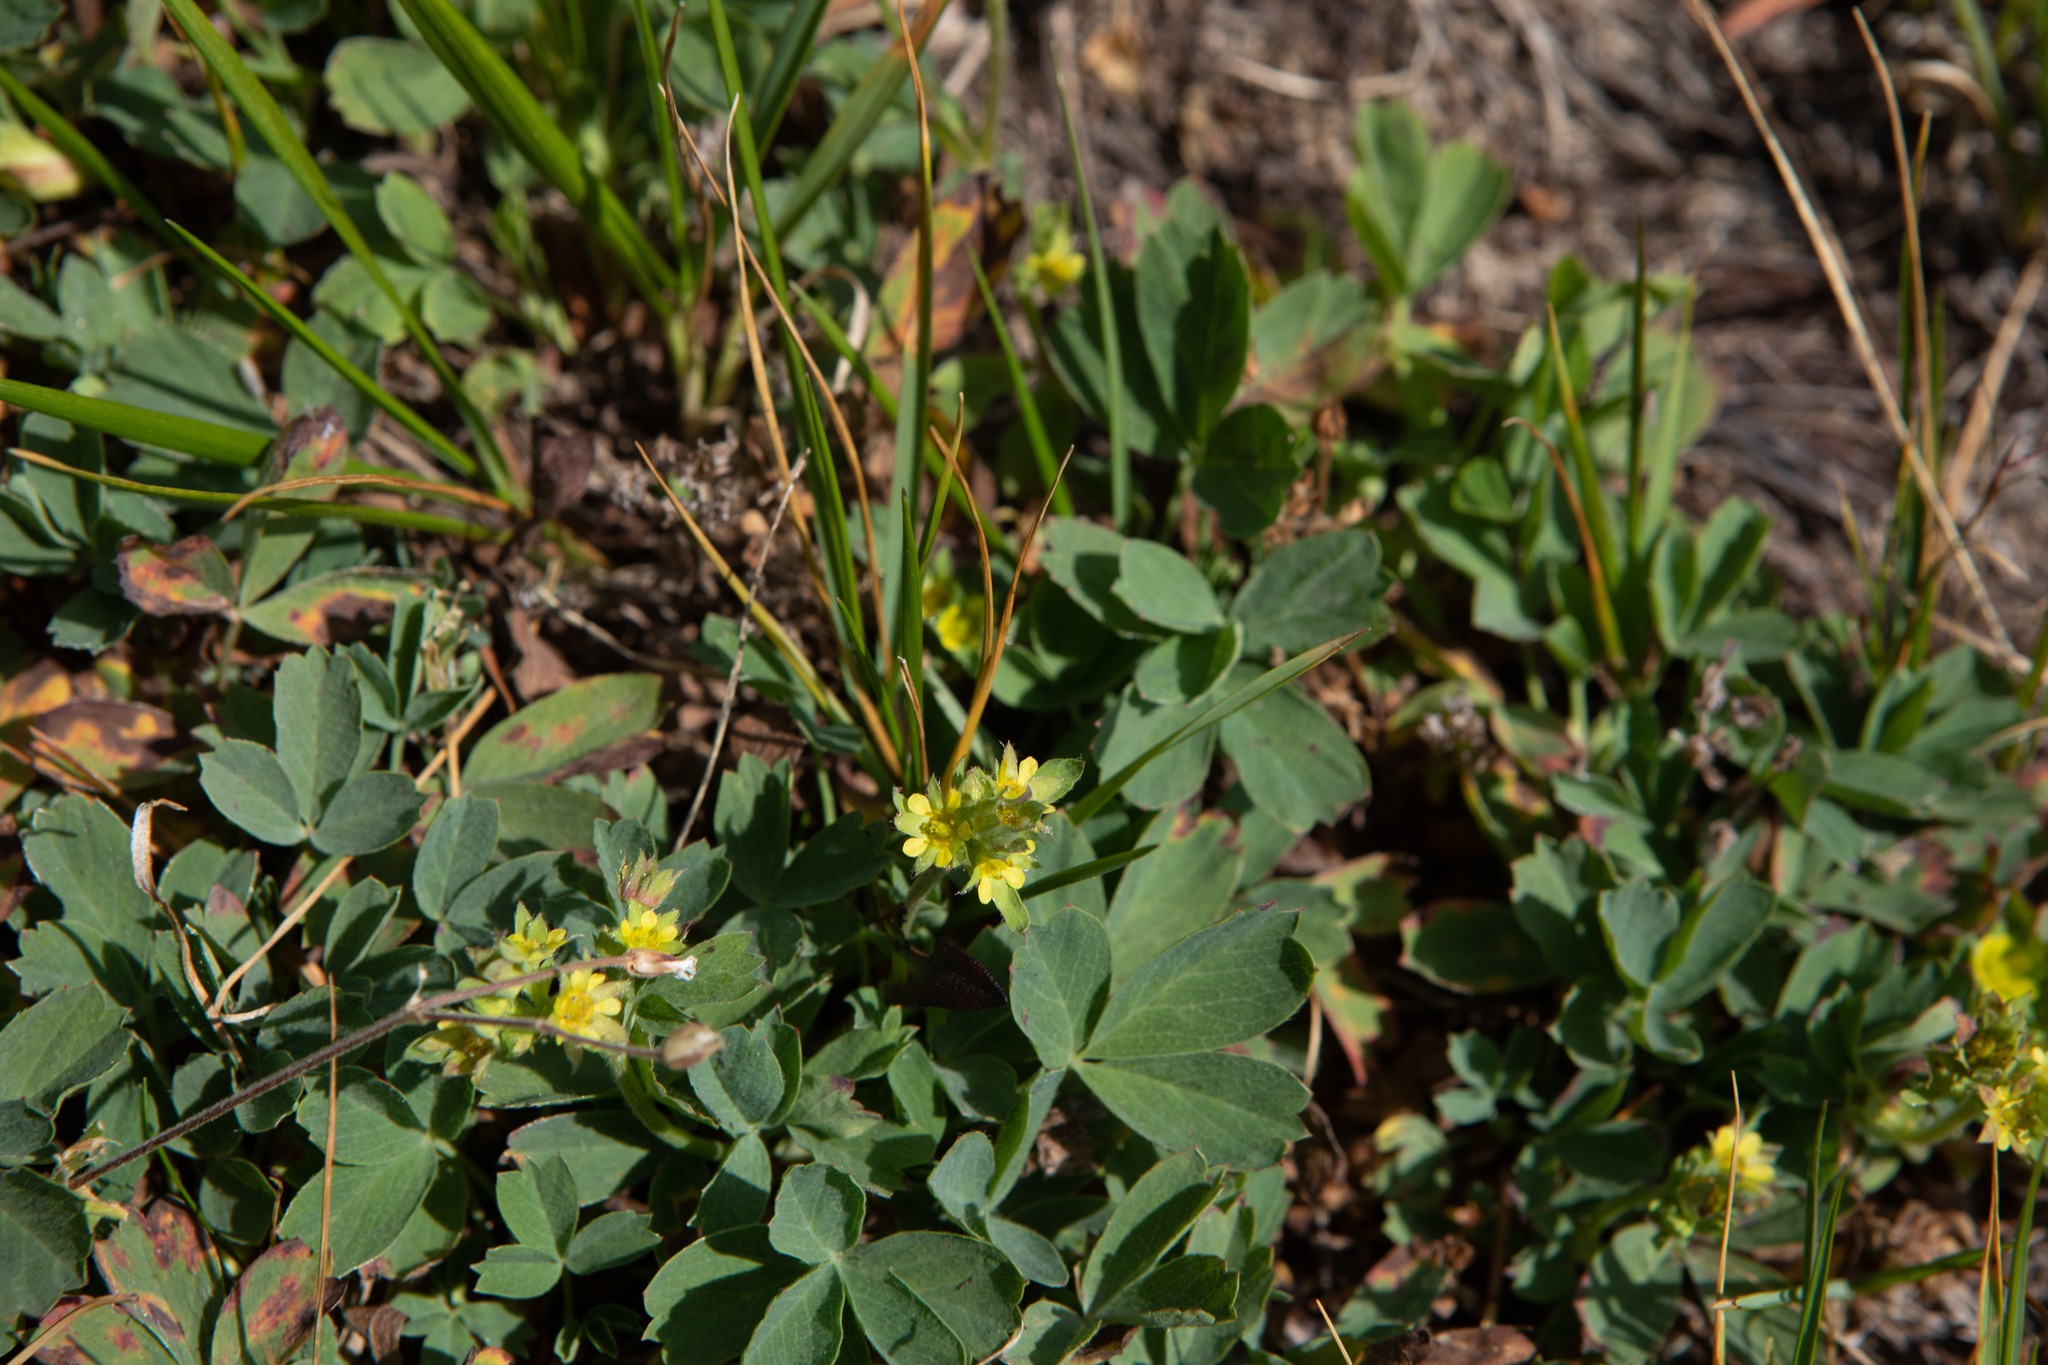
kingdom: Plantae
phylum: Tracheophyta
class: Magnoliopsida
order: Rosales
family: Rosaceae
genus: Sibbaldia
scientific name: Sibbaldia procumbens
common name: Creeping sibbaldia
